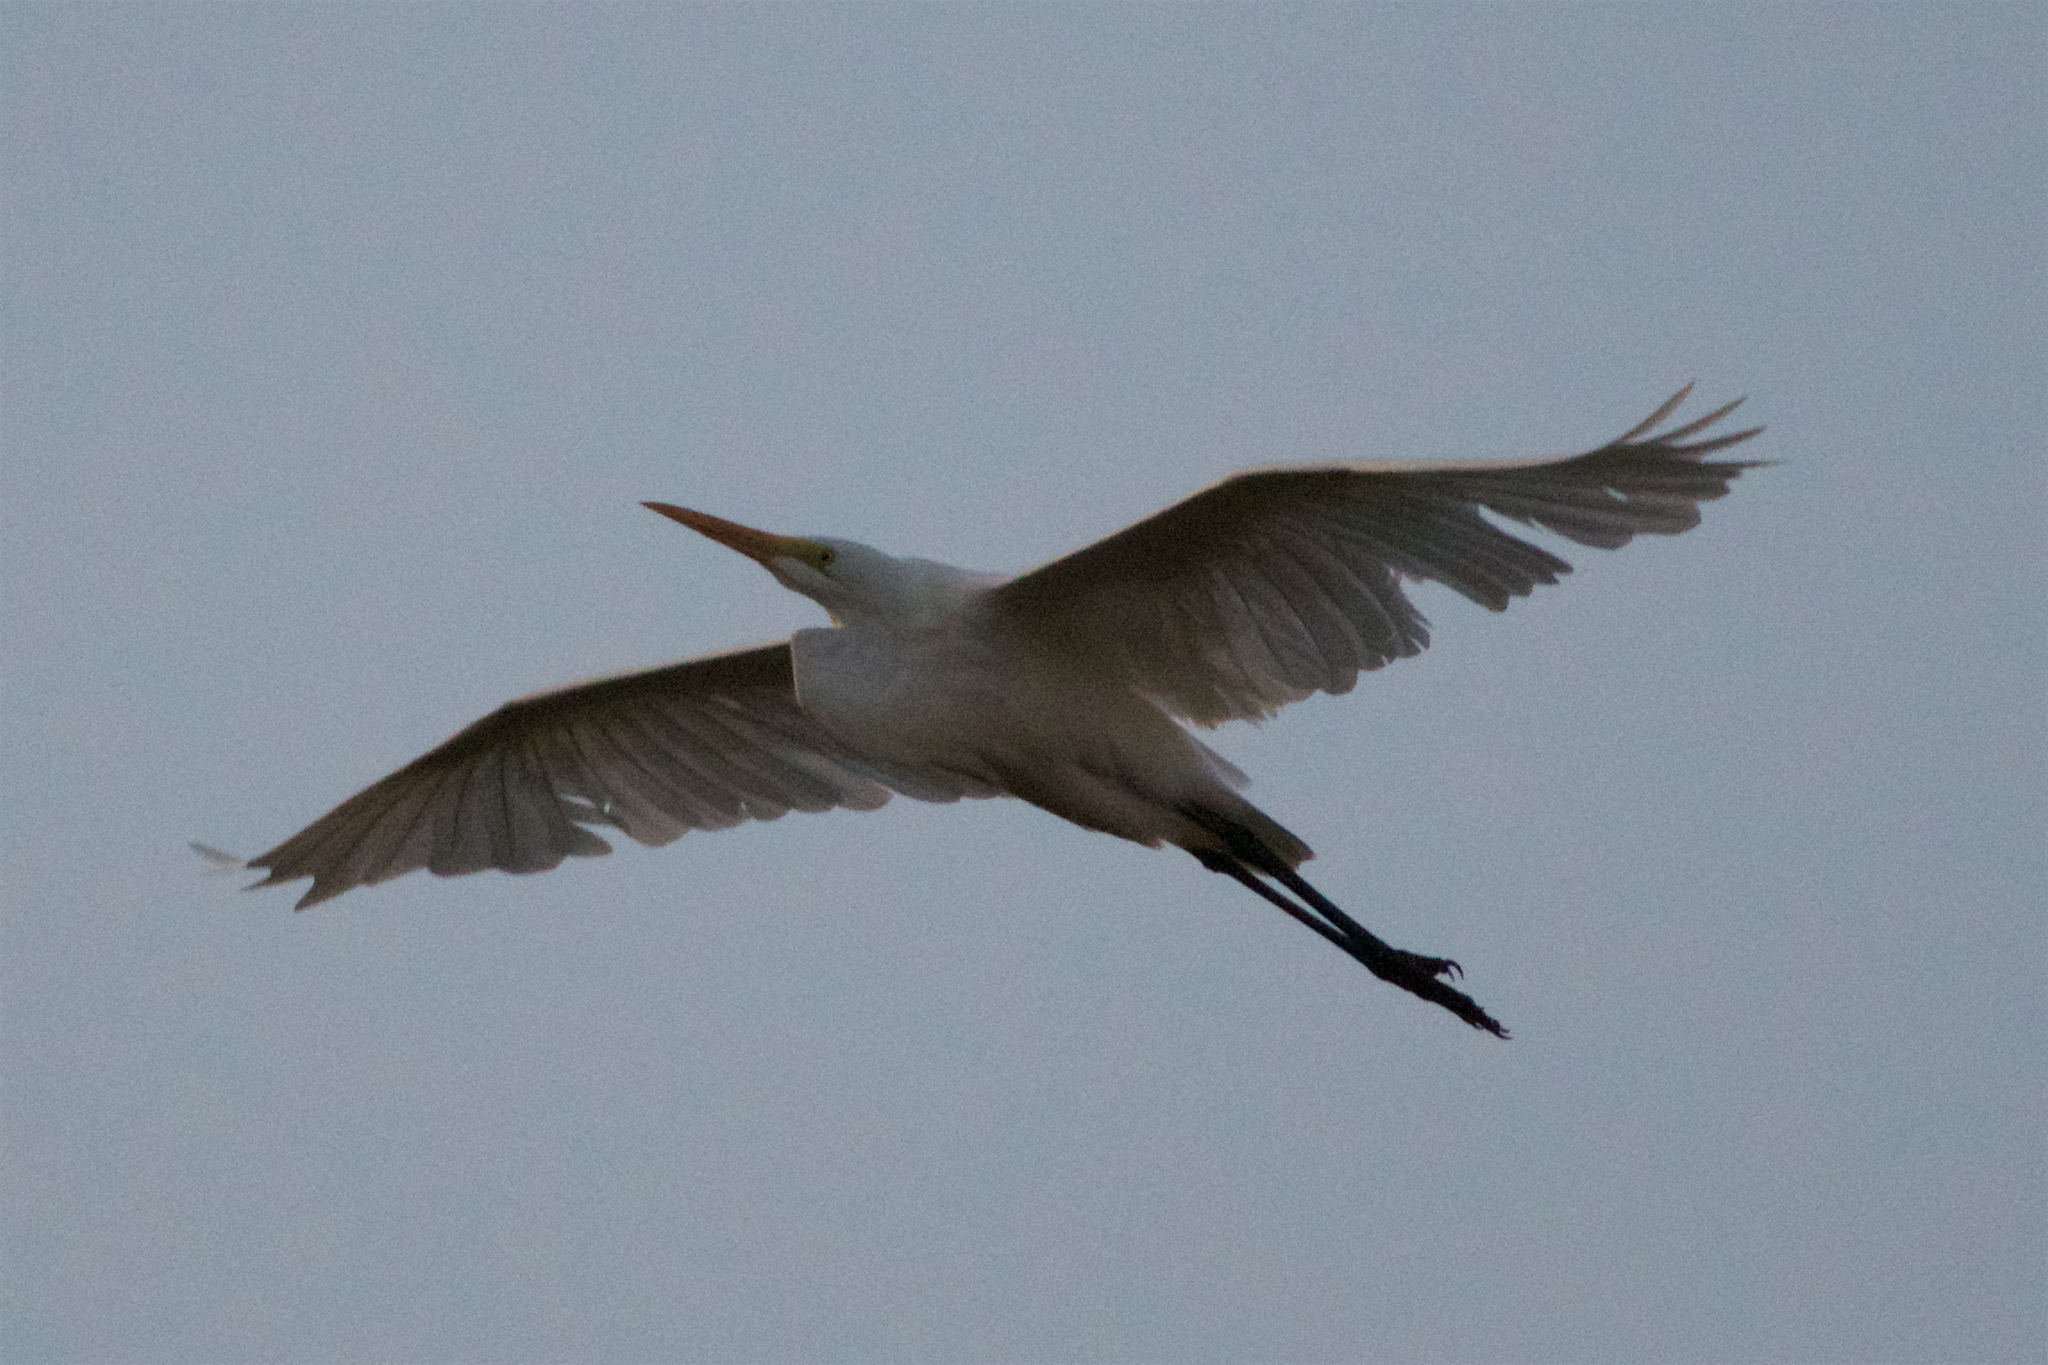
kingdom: Animalia
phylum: Chordata
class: Aves
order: Pelecaniformes
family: Ardeidae
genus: Ardea
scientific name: Ardea alba
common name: Great egret
